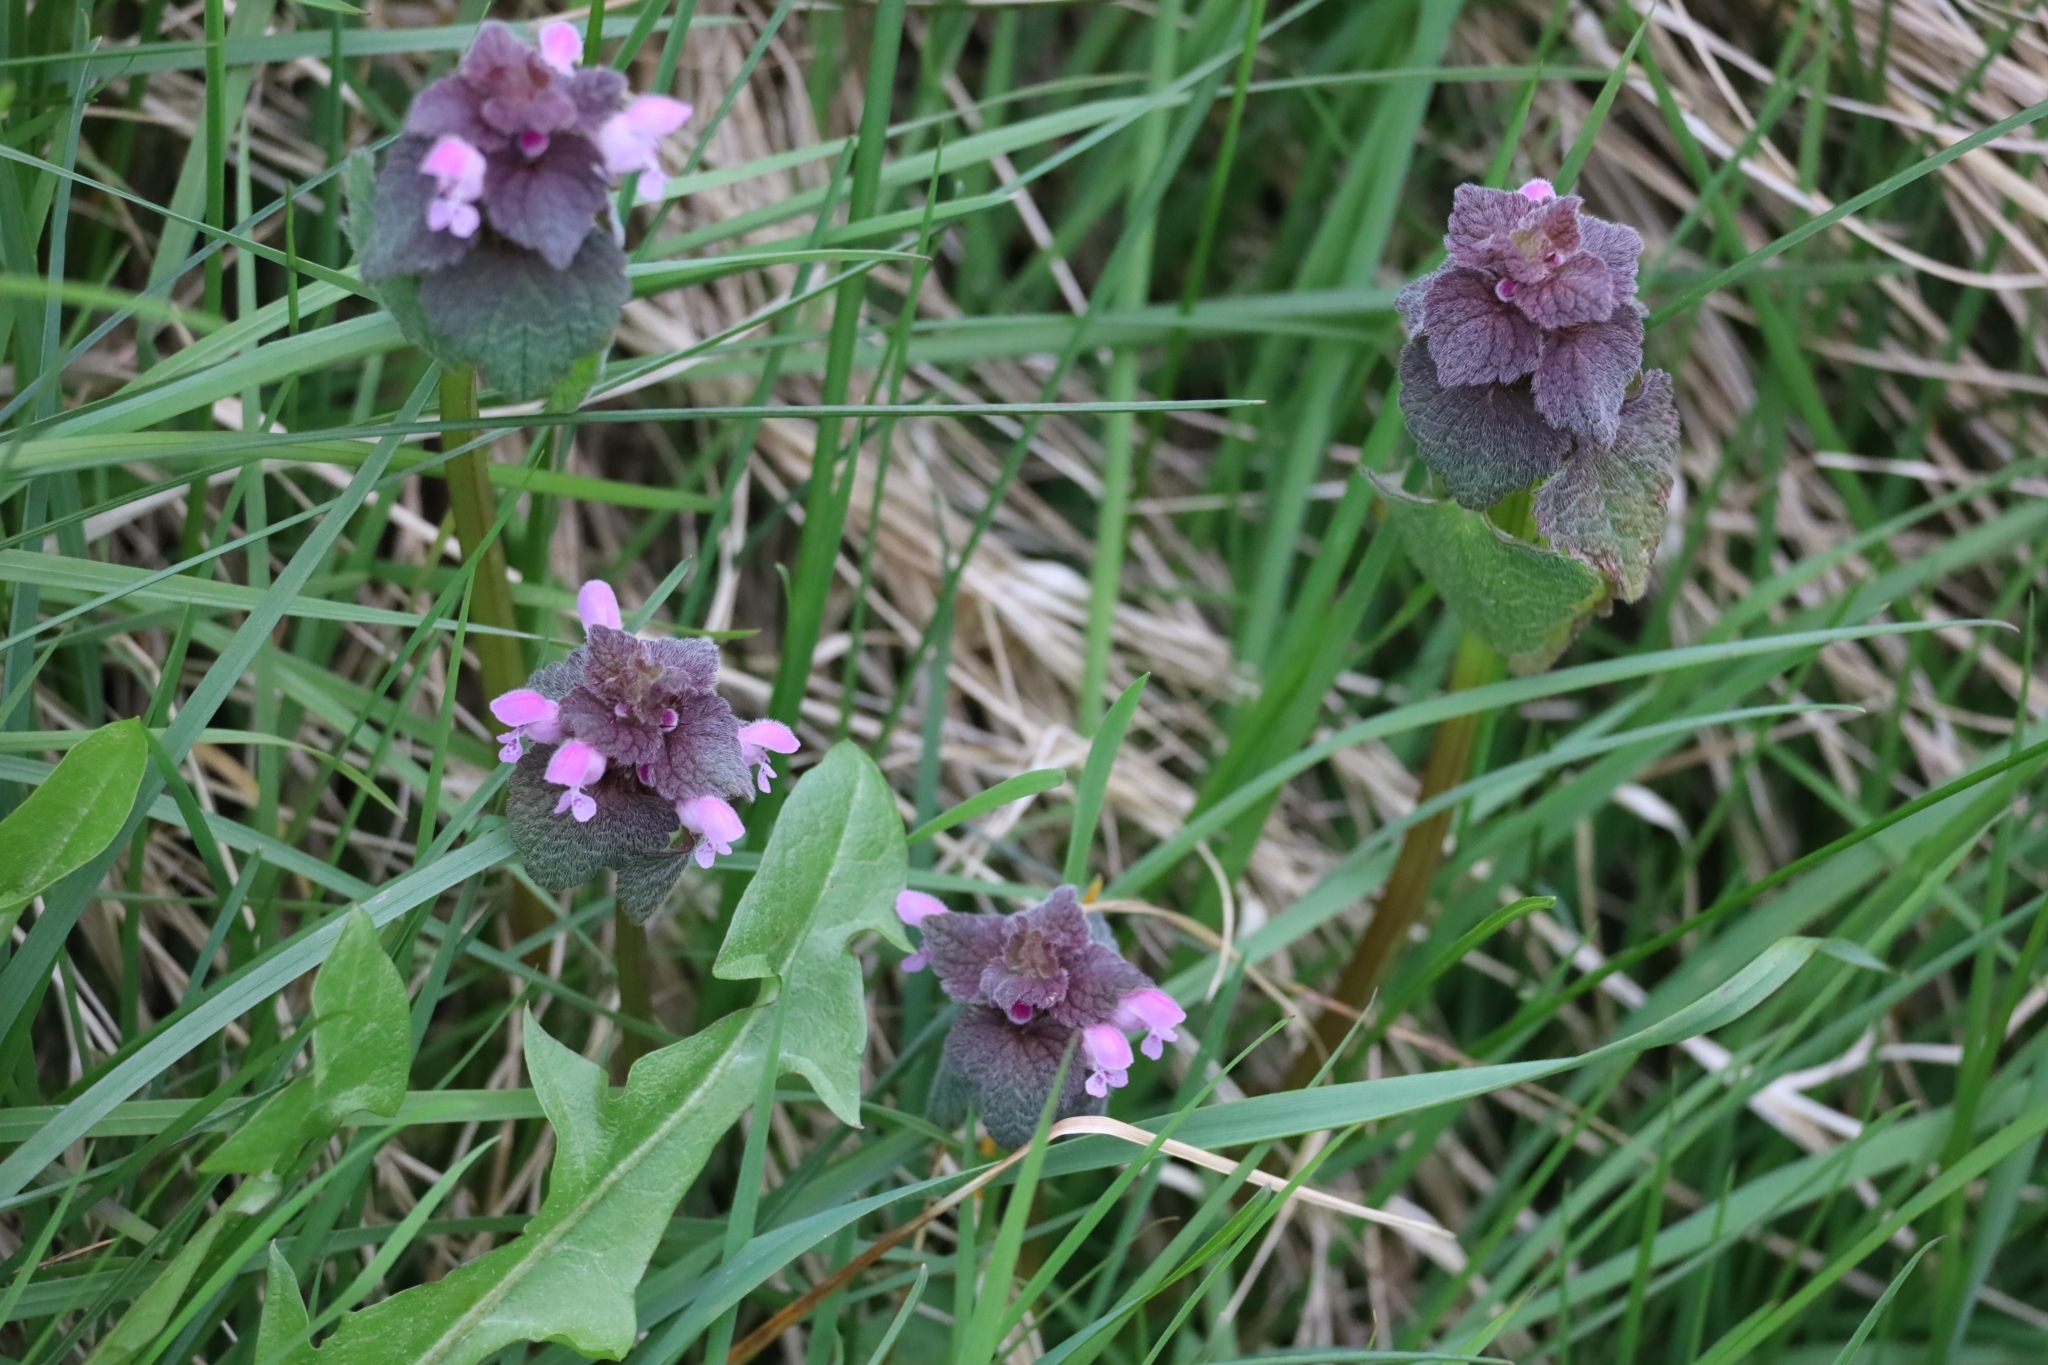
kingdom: Plantae
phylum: Tracheophyta
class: Magnoliopsida
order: Lamiales
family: Lamiaceae
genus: Lamium
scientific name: Lamium purpureum
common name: Red dead-nettle
